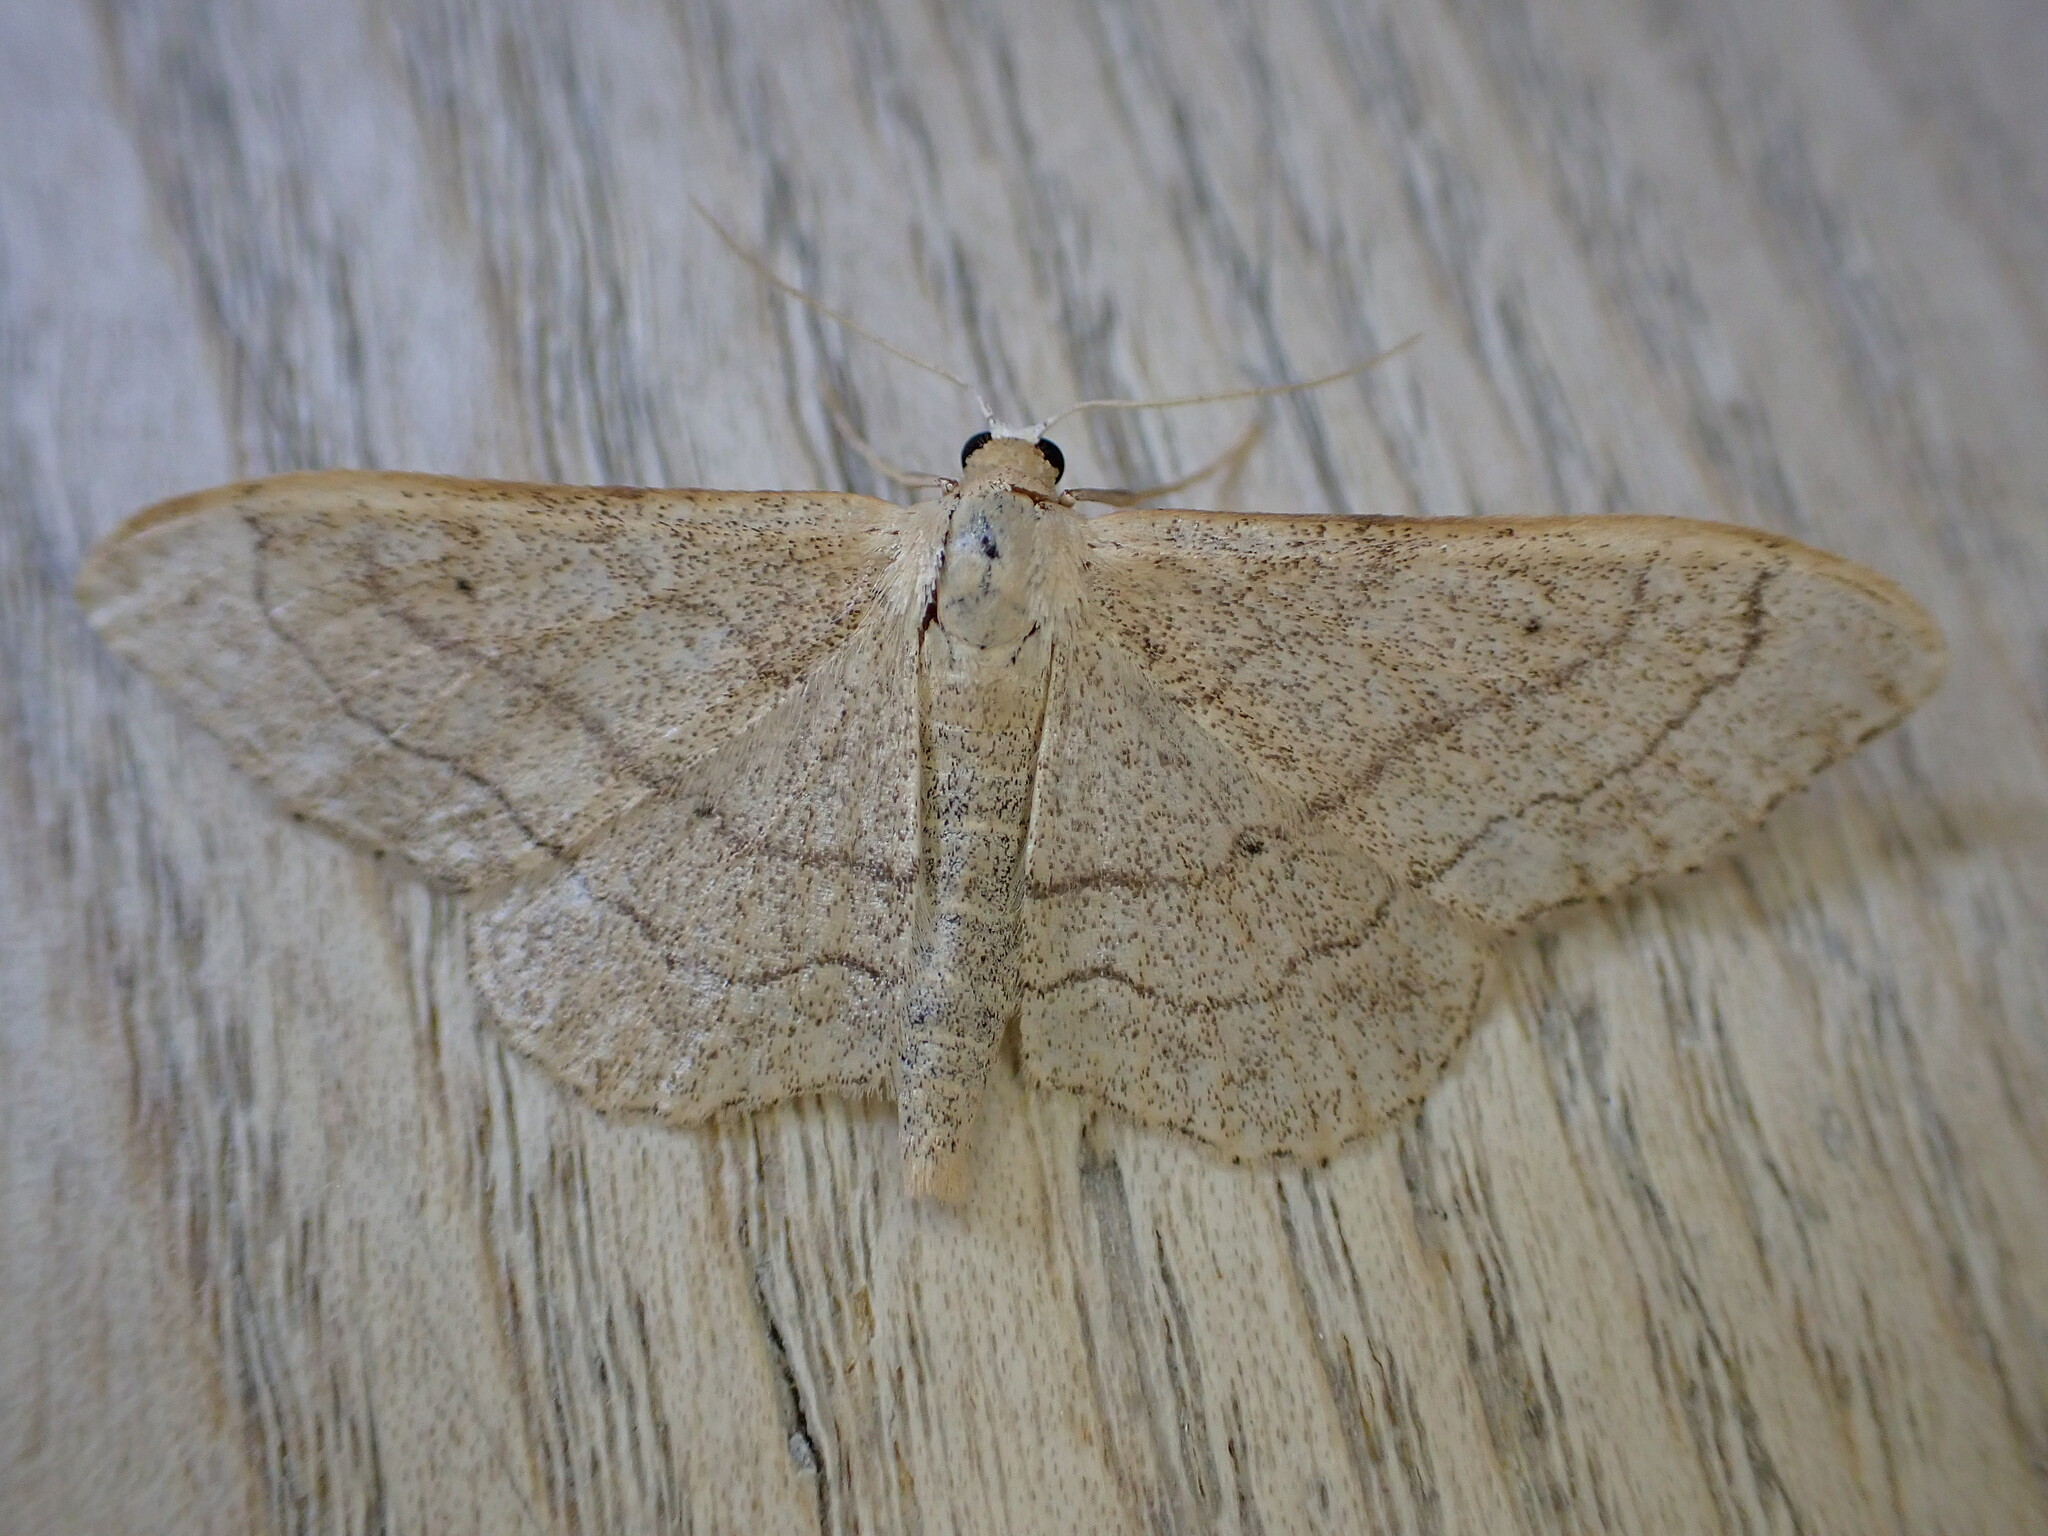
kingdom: Animalia
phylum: Arthropoda
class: Insecta
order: Lepidoptera
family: Geometridae
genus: Idaea
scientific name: Idaea aversata
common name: Riband wave
